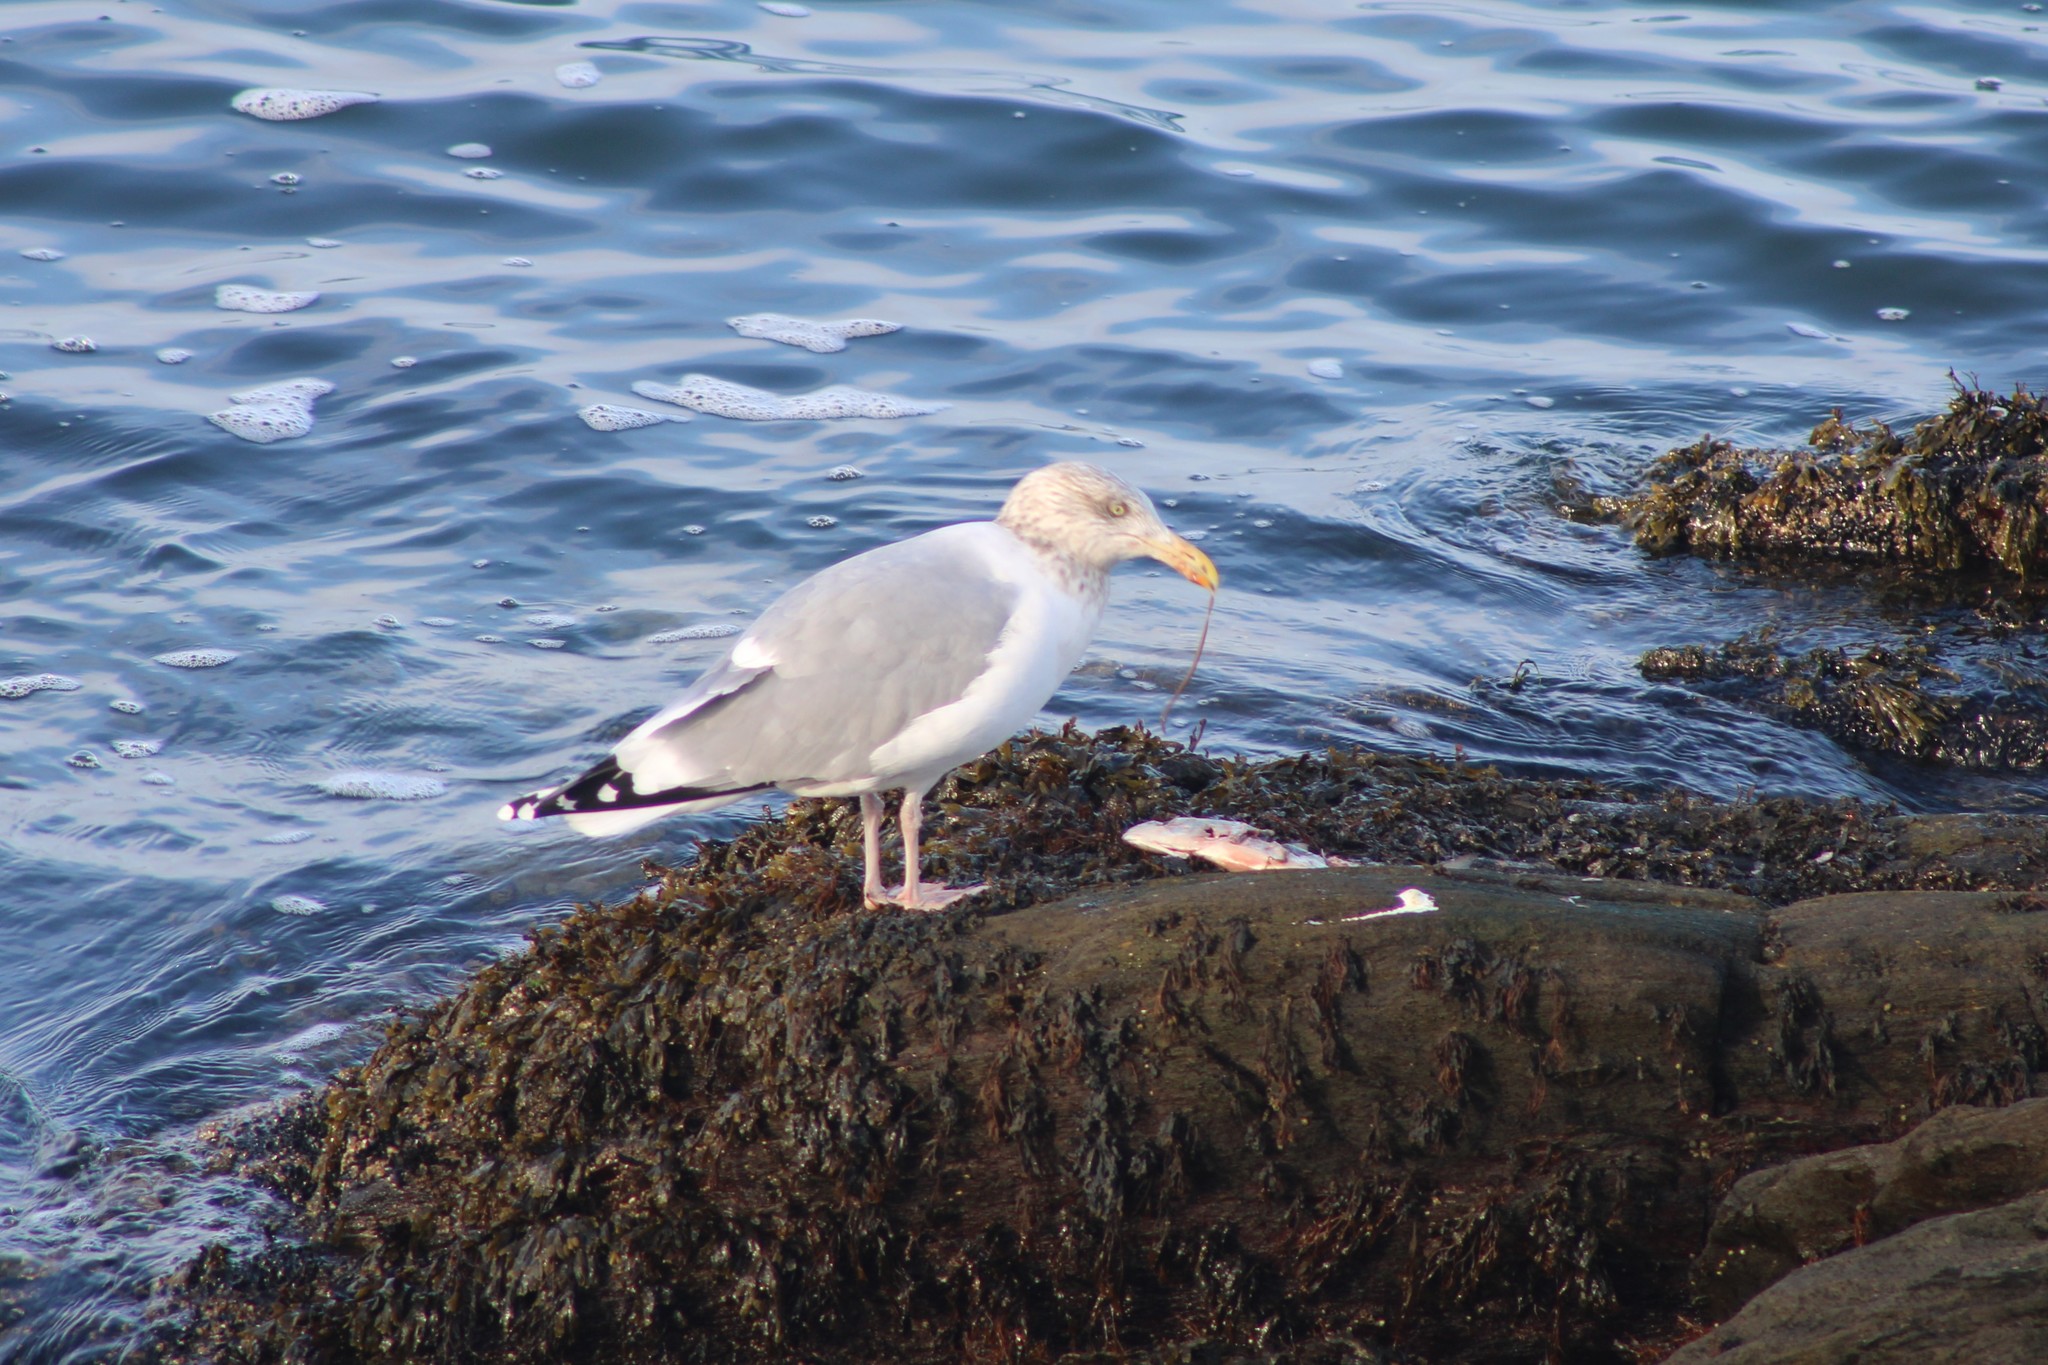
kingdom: Animalia
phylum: Chordata
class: Aves
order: Charadriiformes
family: Laridae
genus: Larus
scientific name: Larus argentatus
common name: Herring gull
